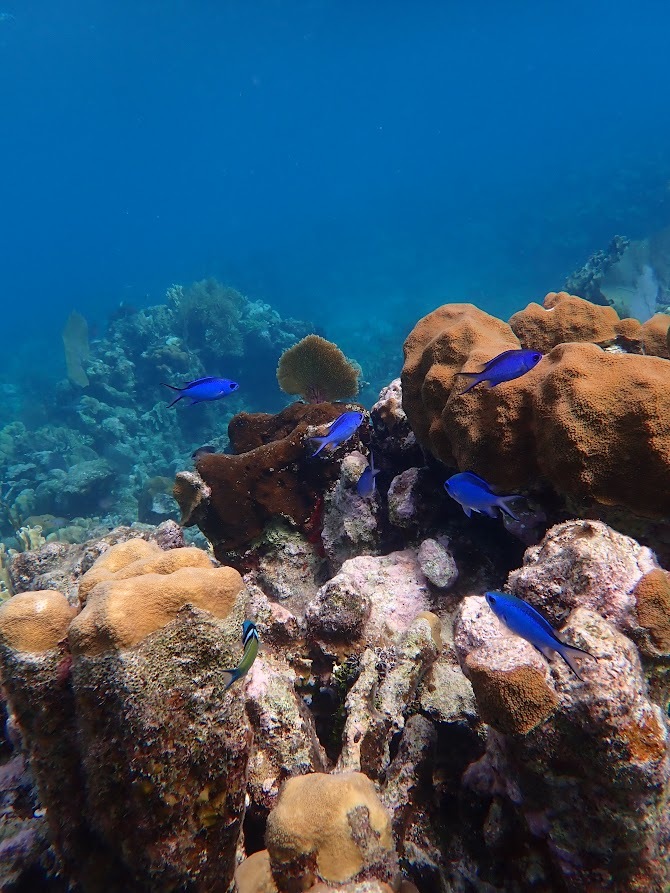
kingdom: Animalia
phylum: Chordata
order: Perciformes
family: Pomacentridae
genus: Chromis
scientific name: Chromis cyanea
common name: Blue chromis
